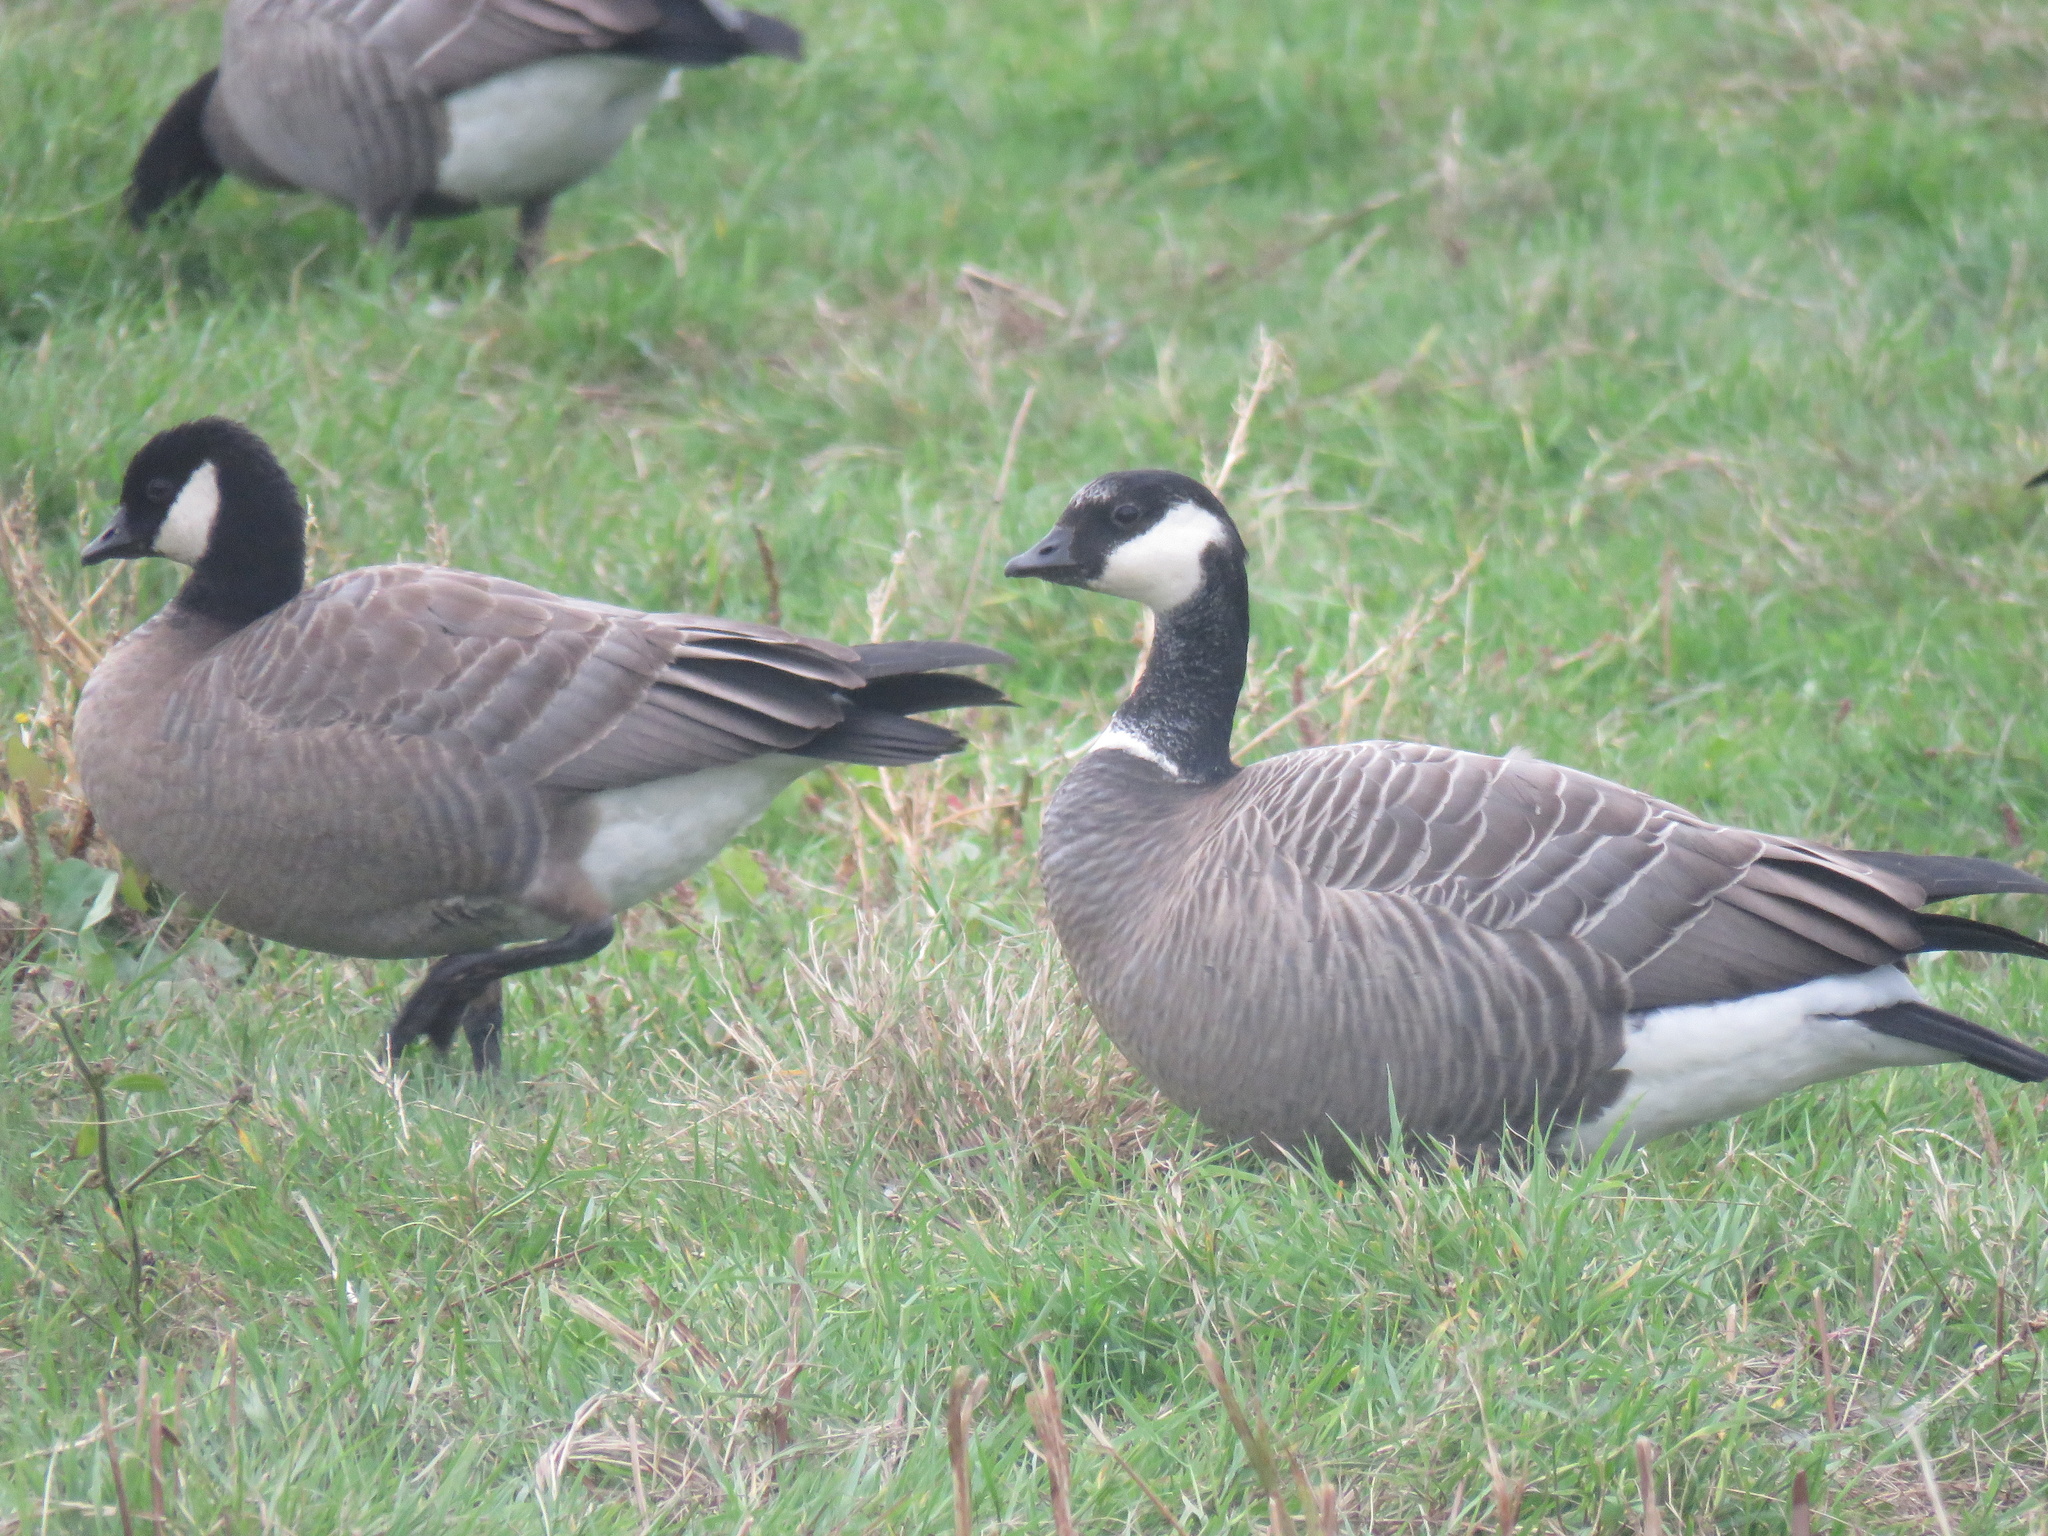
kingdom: Animalia
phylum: Chordata
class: Aves
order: Anseriformes
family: Anatidae
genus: Branta
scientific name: Branta hutchinsii
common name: Cackling goose
